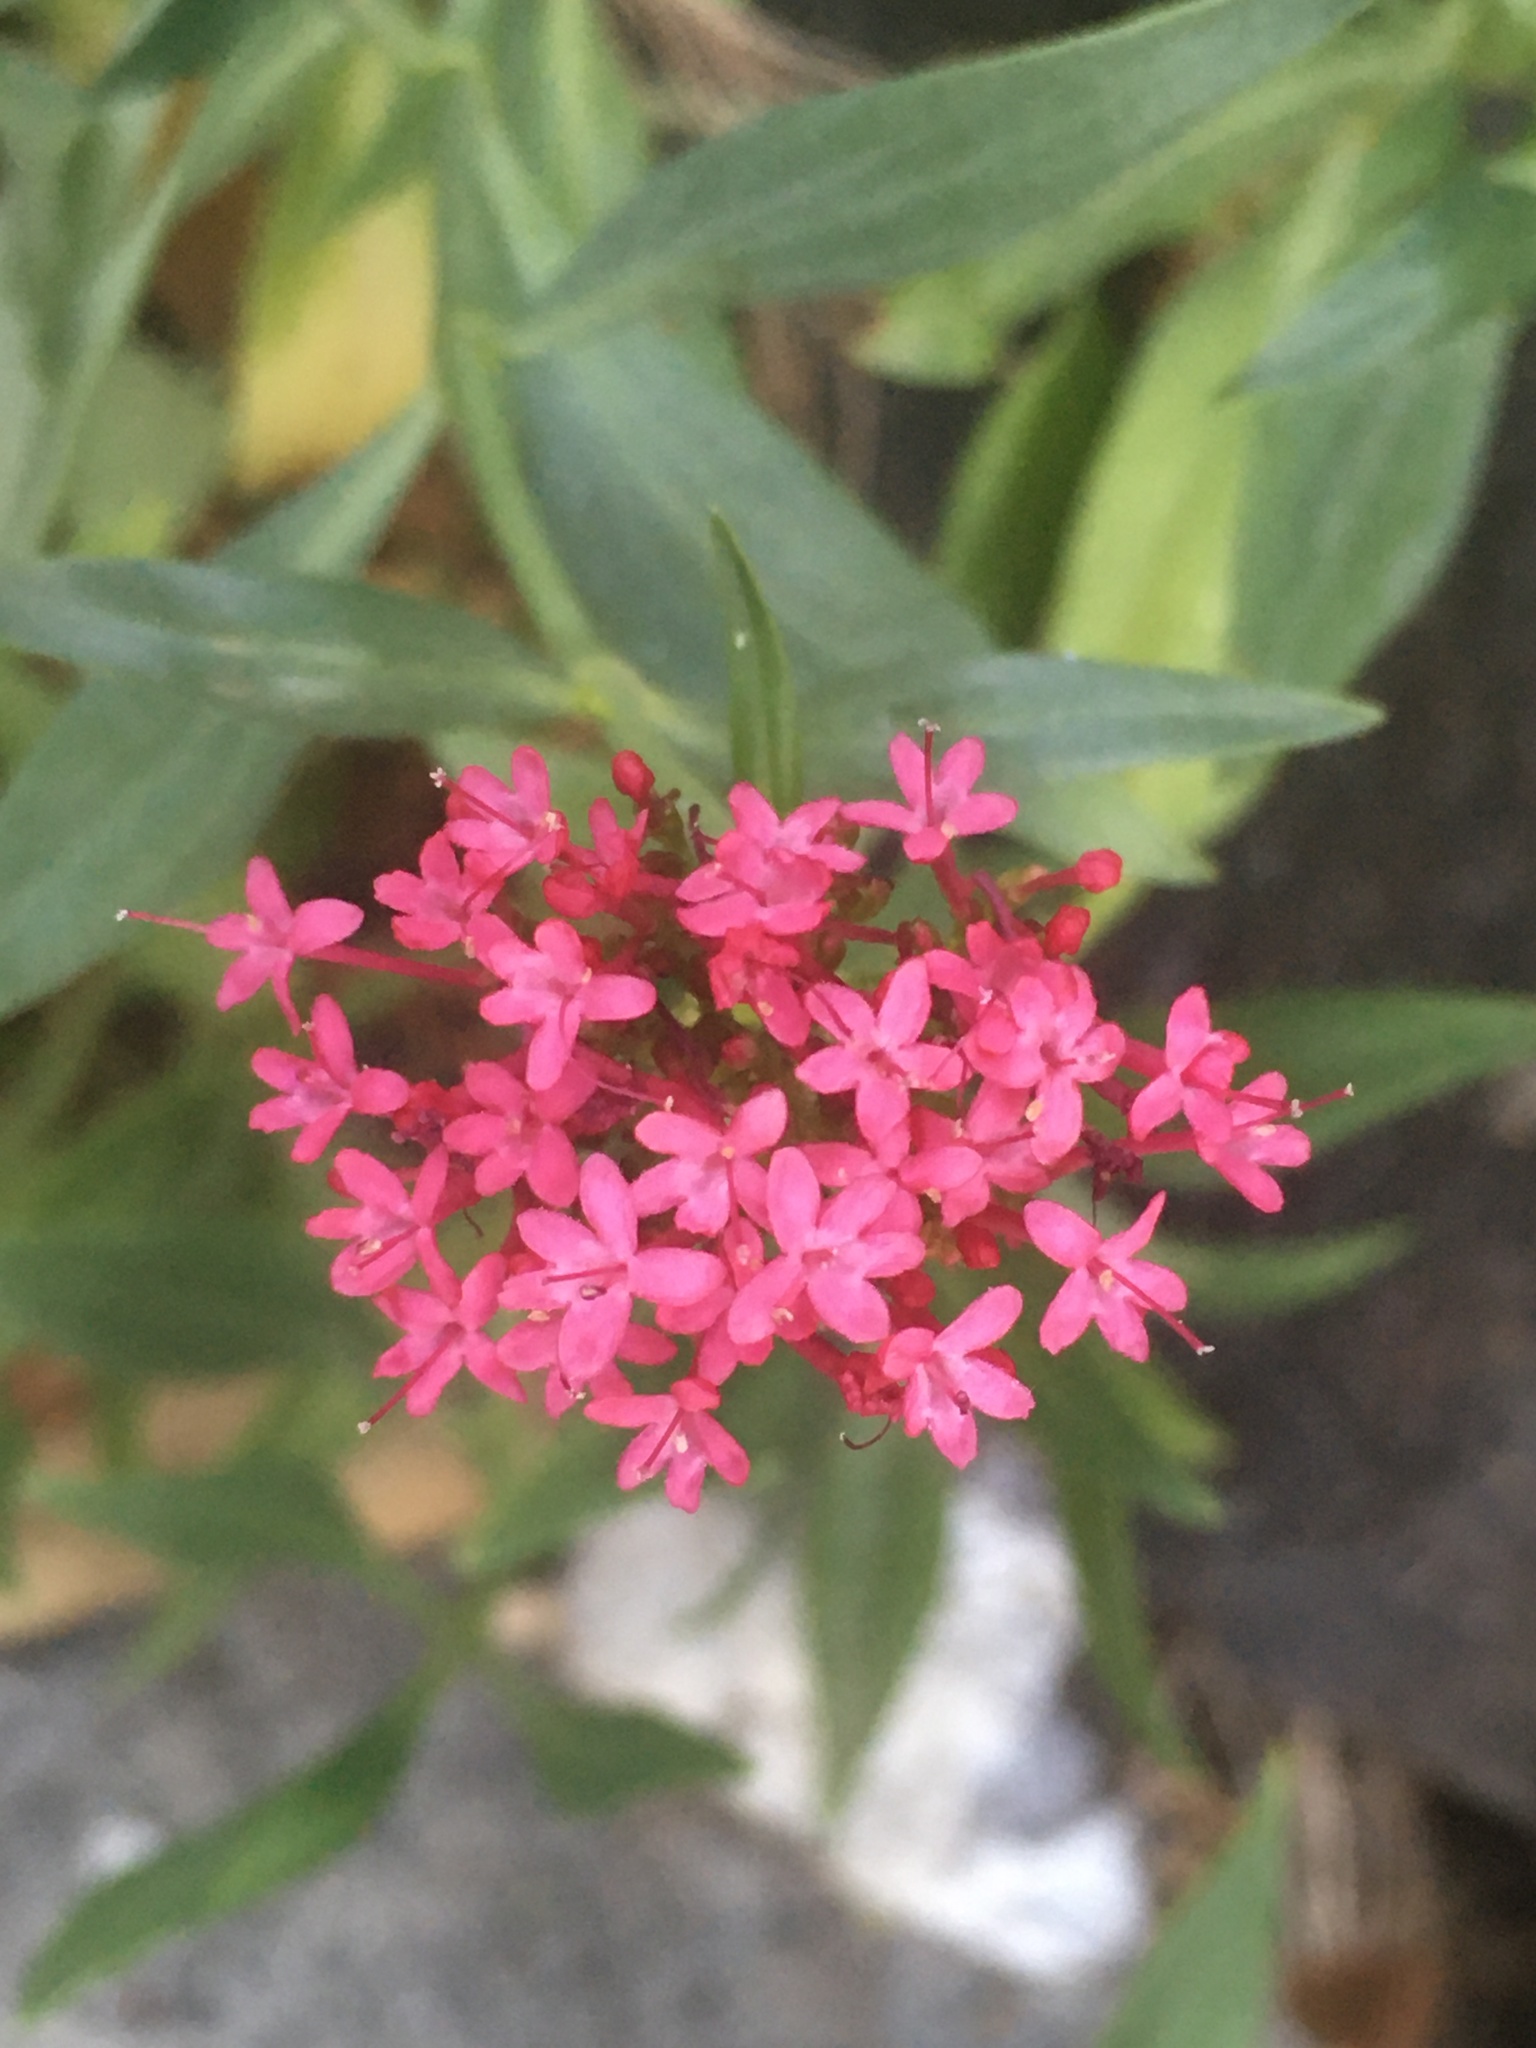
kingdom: Plantae
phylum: Tracheophyta
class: Magnoliopsida
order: Dipsacales
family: Caprifoliaceae
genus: Centranthus
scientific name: Centranthus ruber
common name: Red valerian
